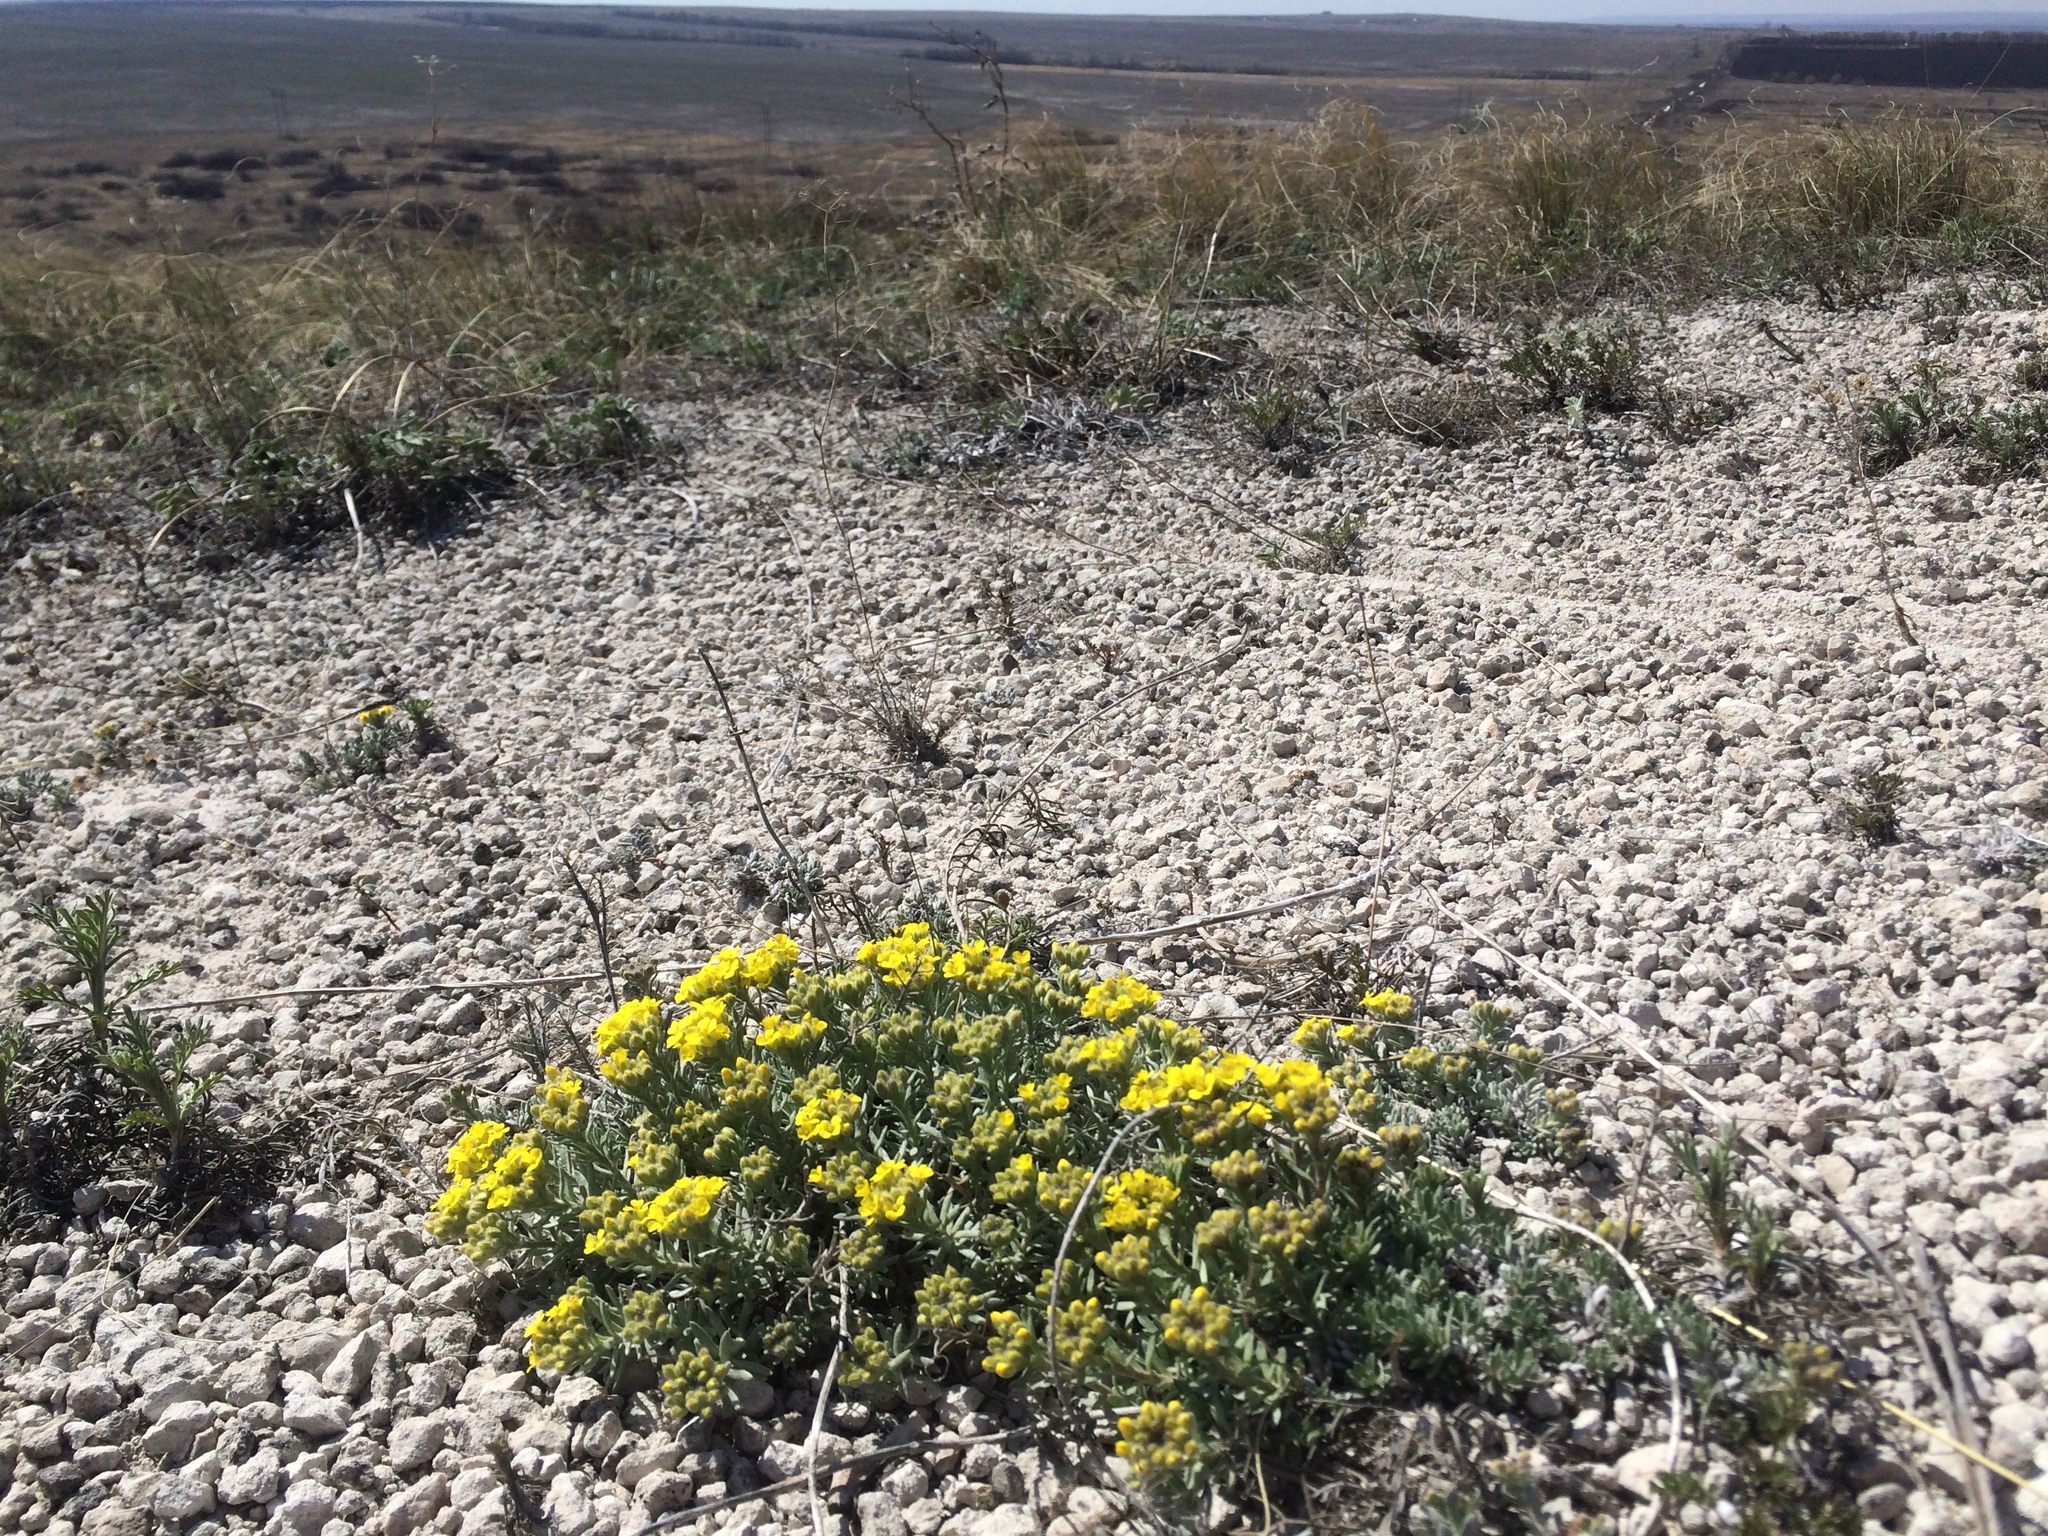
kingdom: Plantae
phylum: Tracheophyta
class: Magnoliopsida
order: Brassicales
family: Brassicaceae
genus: Alyssum
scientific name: Alyssum lenense
